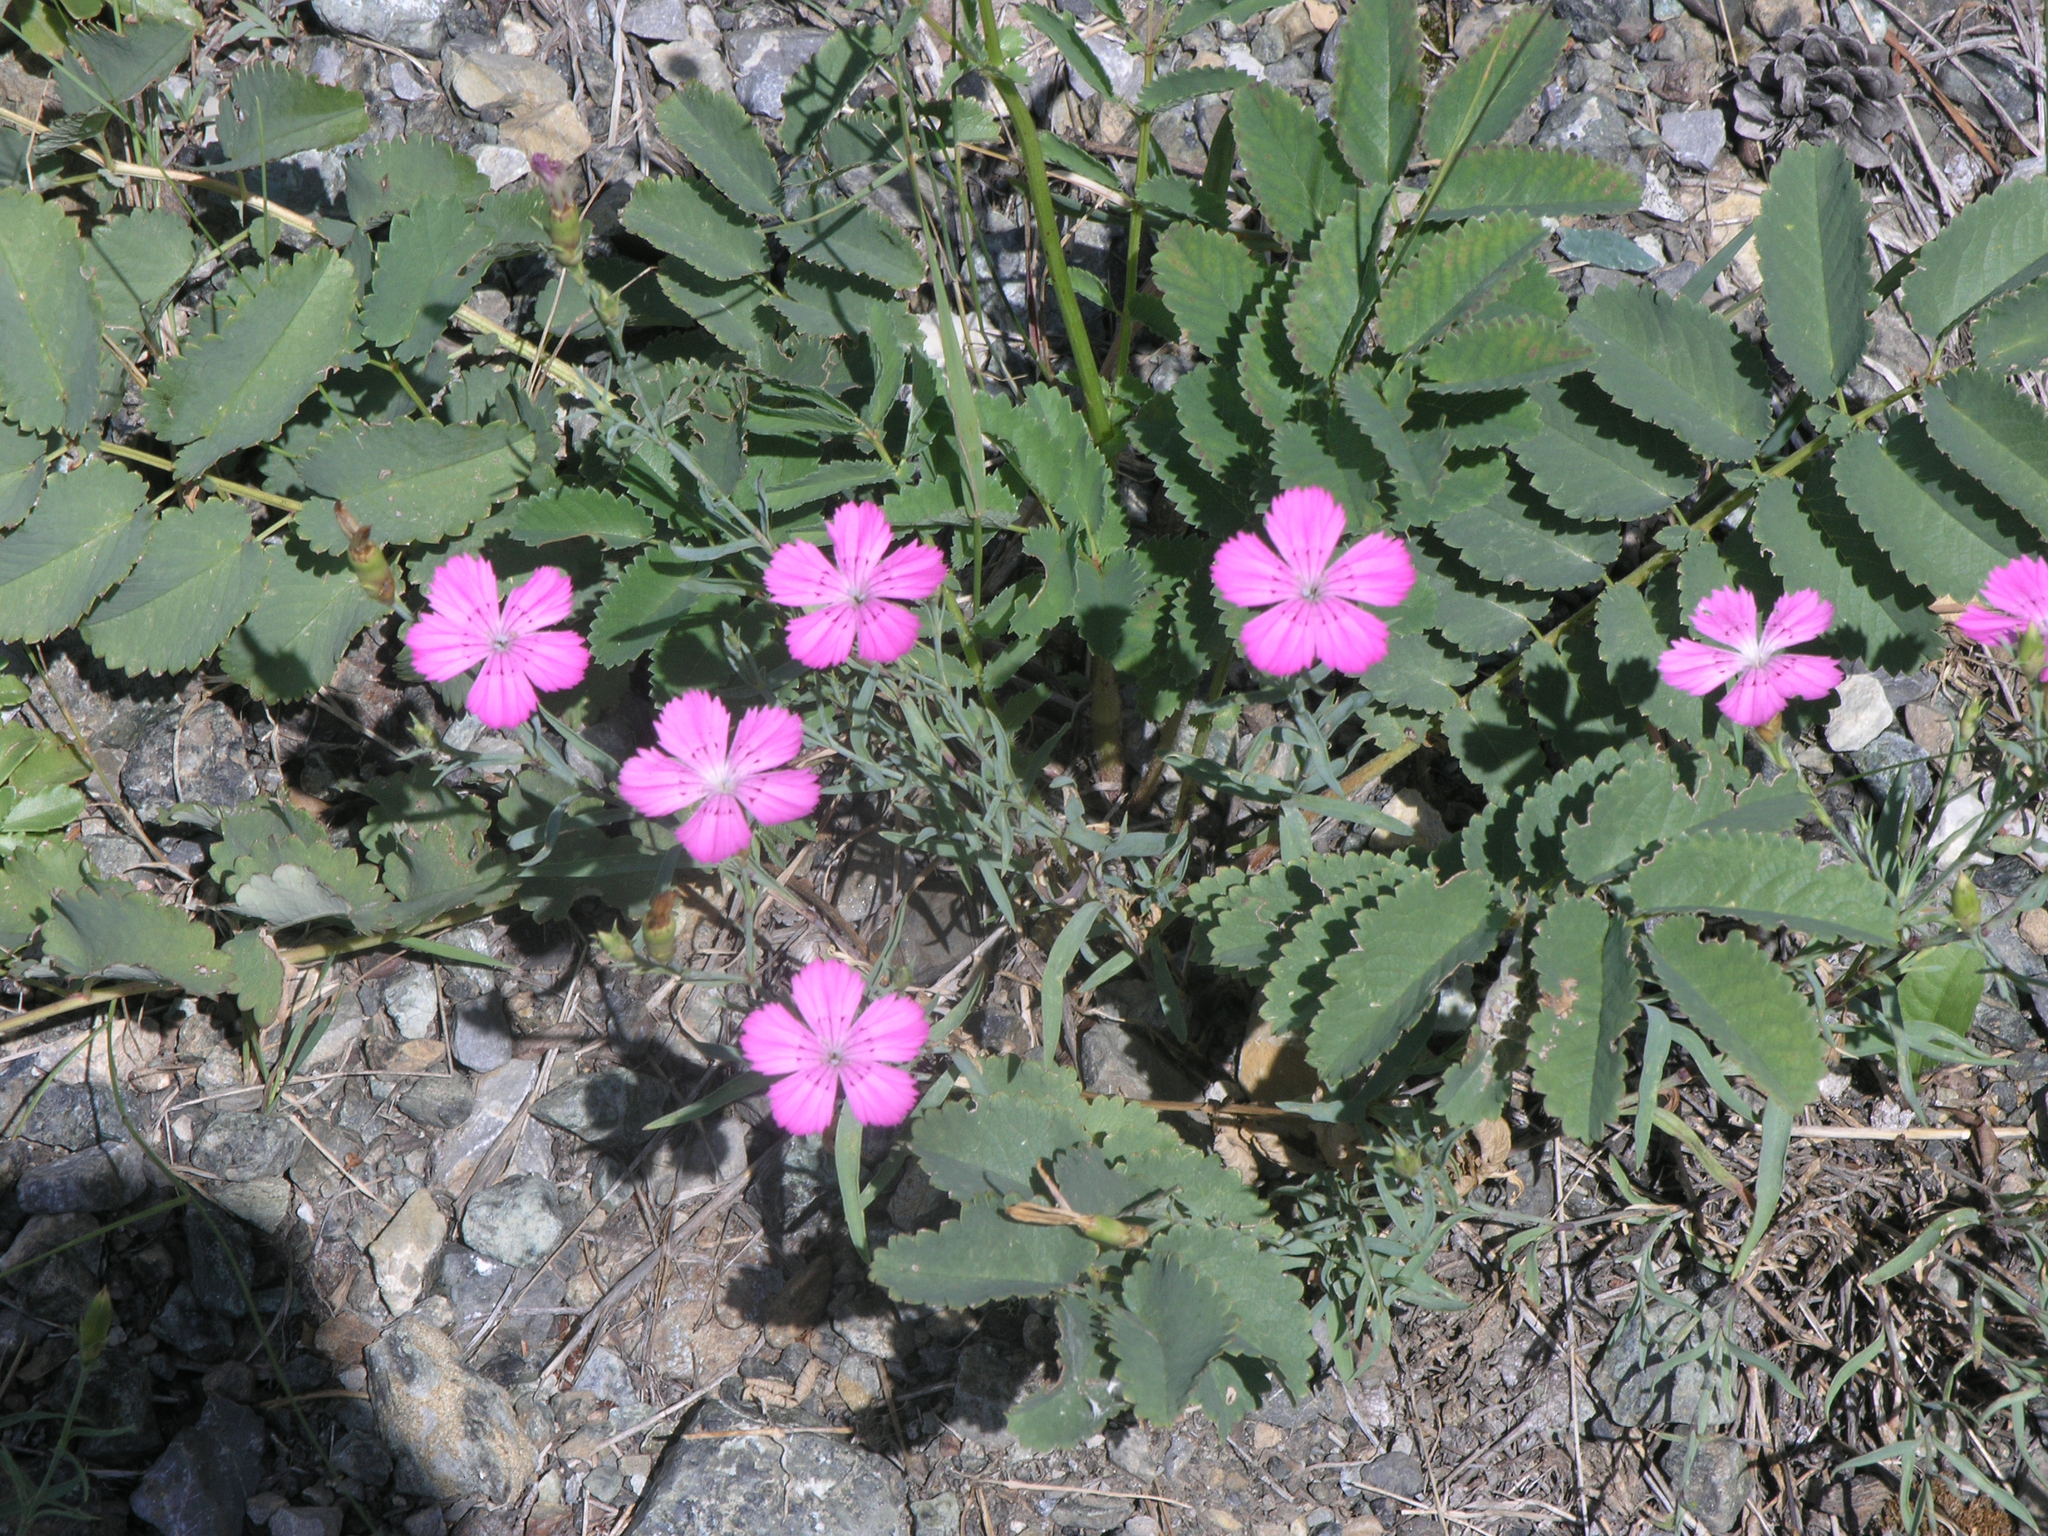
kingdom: Plantae
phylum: Tracheophyta
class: Magnoliopsida
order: Caryophyllales
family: Caryophyllaceae
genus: Dianthus
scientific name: Dianthus chinensis
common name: Rainbow pink
